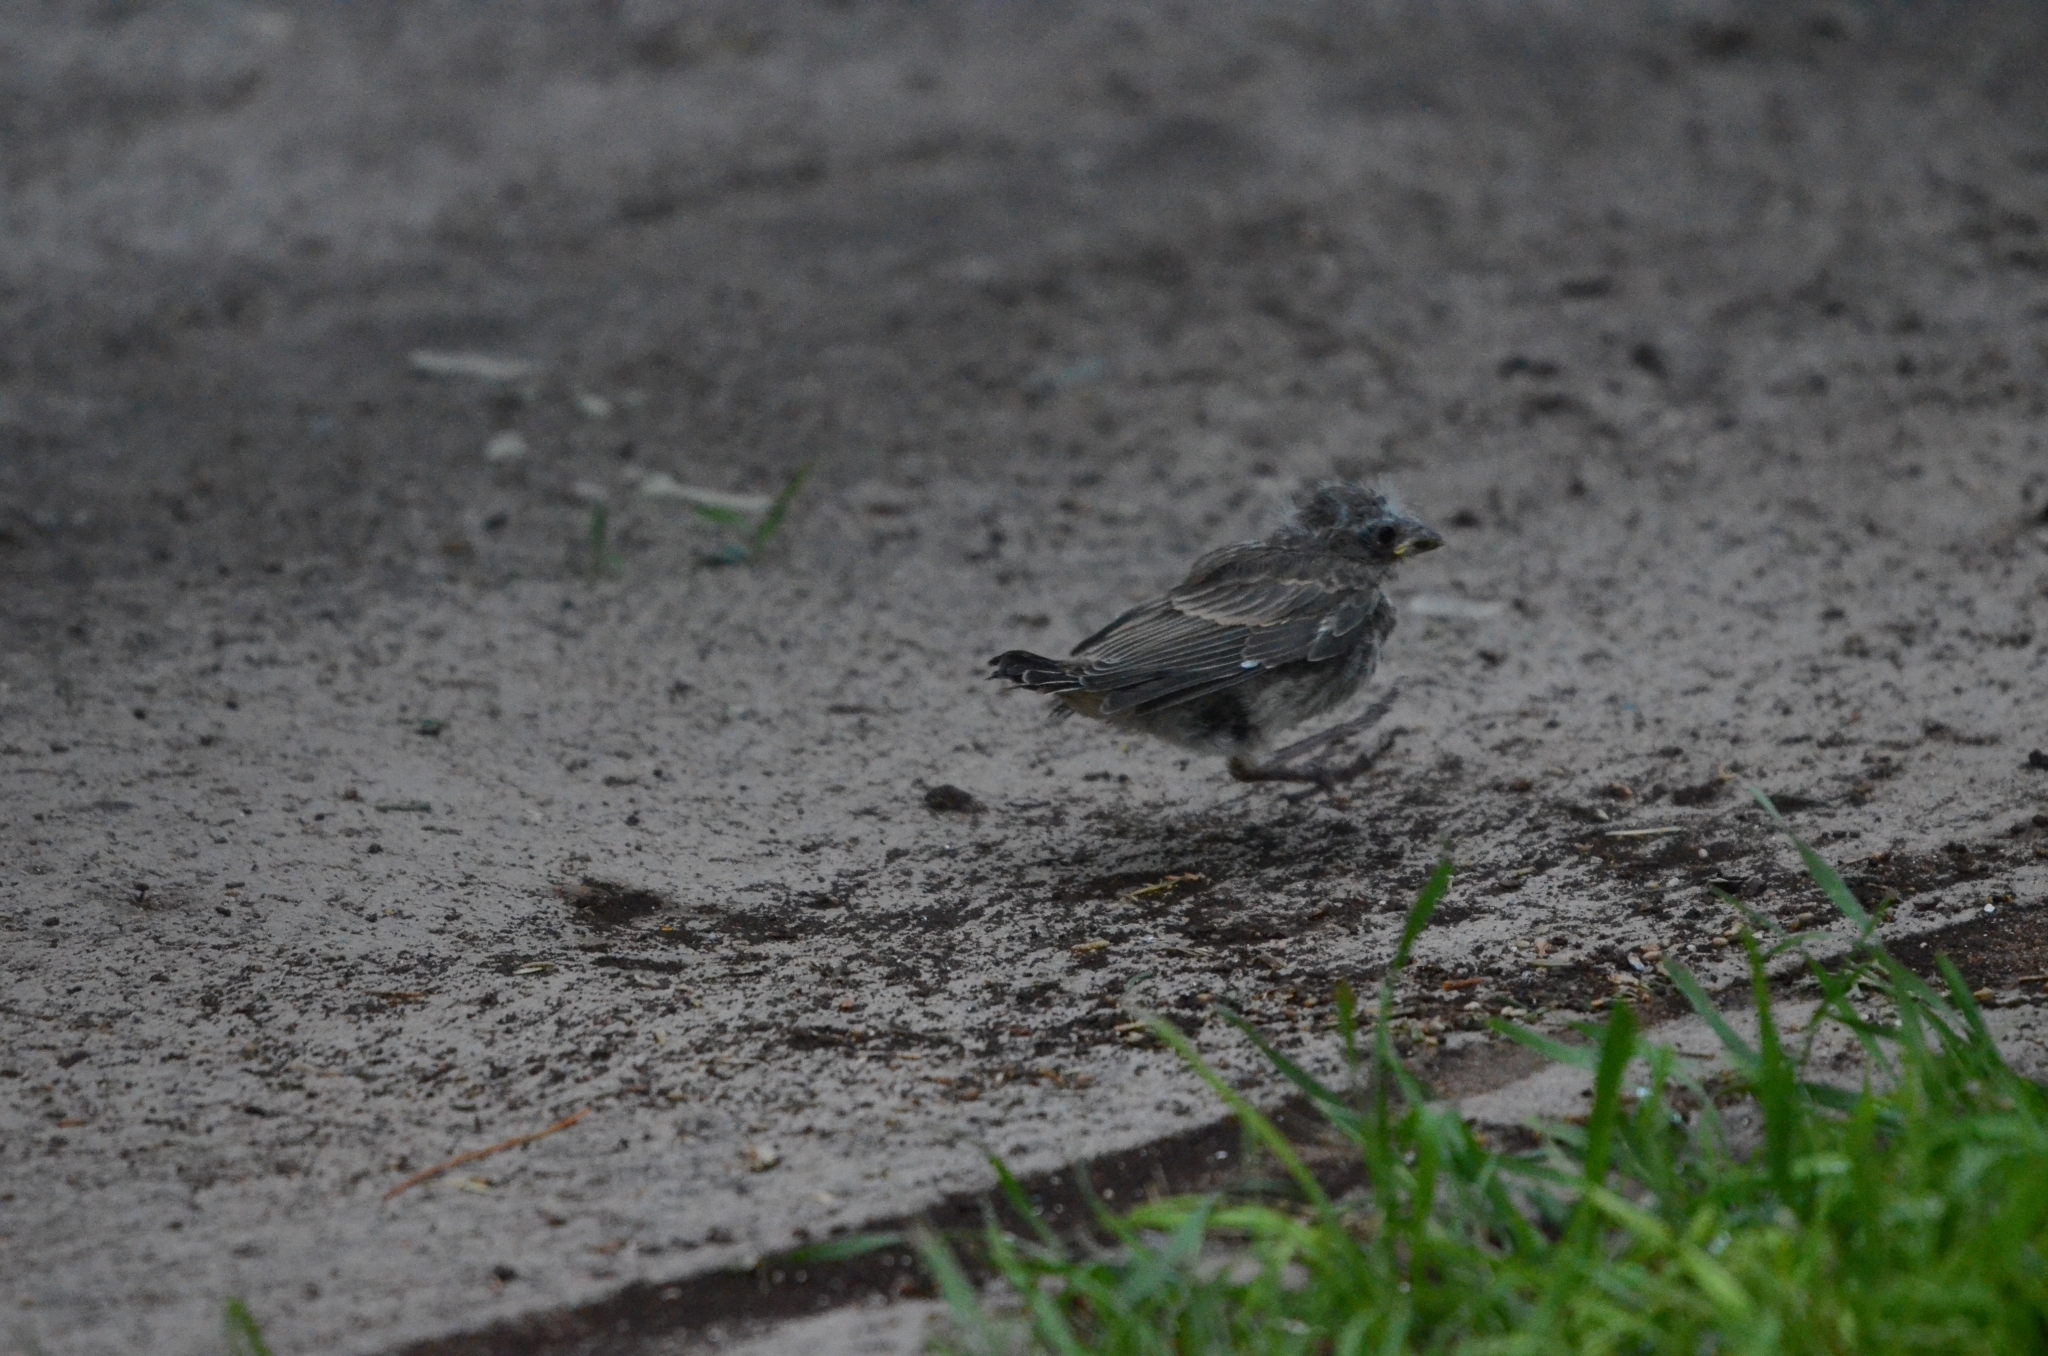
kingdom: Animalia
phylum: Chordata
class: Aves
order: Passeriformes
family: Fringillidae
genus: Haemorhous
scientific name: Haemorhous mexicanus
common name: House finch
